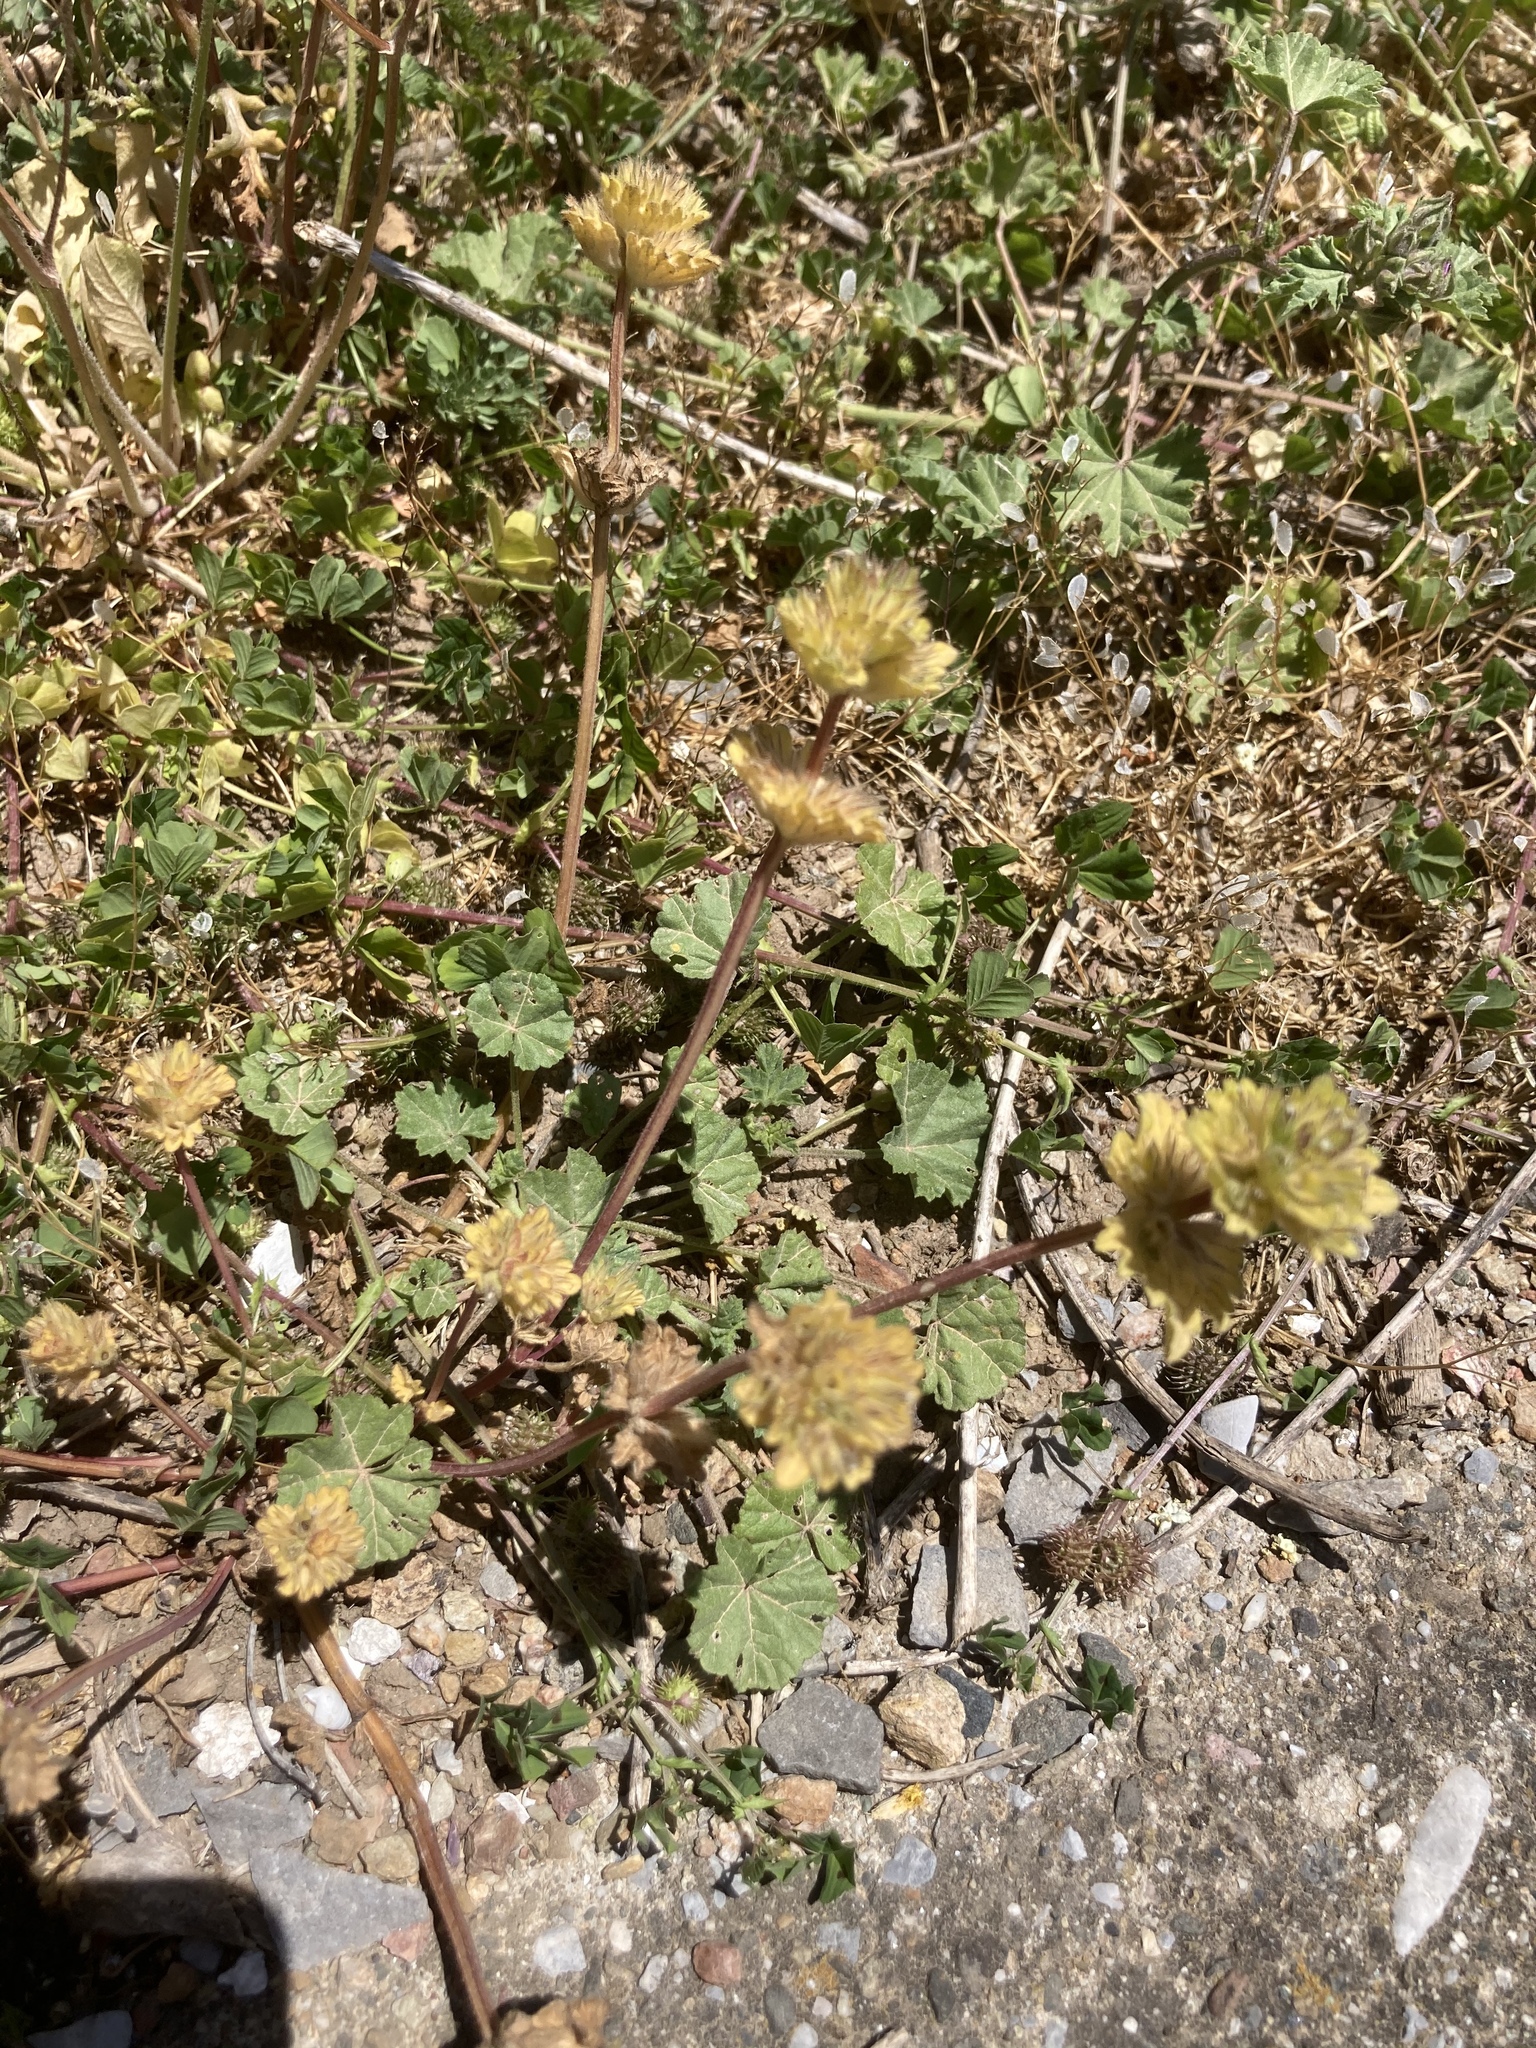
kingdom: Plantae
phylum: Tracheophyta
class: Magnoliopsida
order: Lamiales
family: Lamiaceae
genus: Lamium
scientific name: Lamium amplexicaule
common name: Henbit dead-nettle
